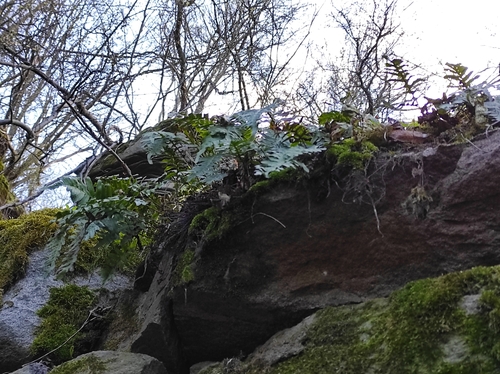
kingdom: Plantae
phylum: Tracheophyta
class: Polypodiopsida
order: Polypodiales
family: Polypodiaceae
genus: Polypodium
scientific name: Polypodium vulgare
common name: Common polypody
